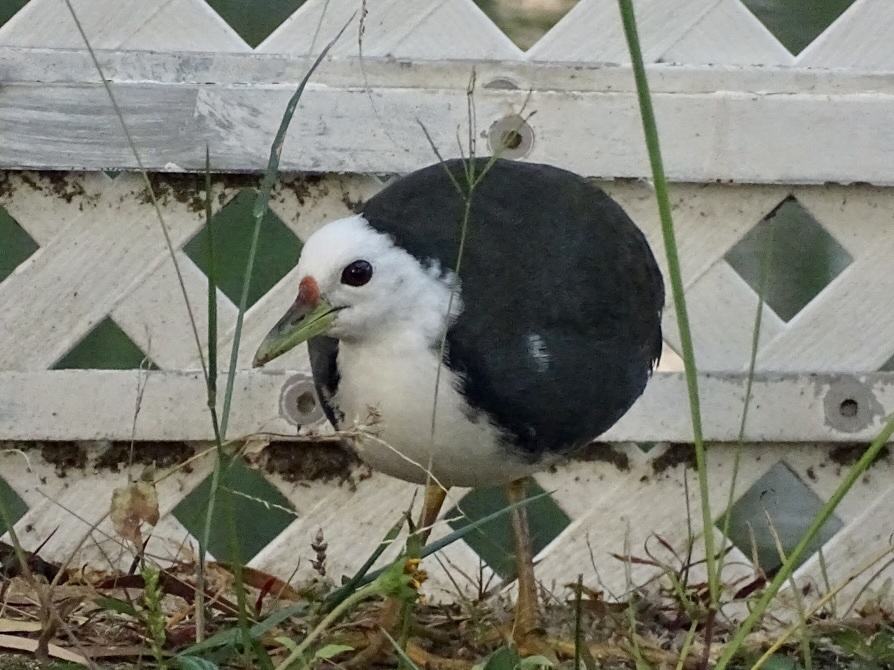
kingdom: Animalia
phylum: Chordata
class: Aves
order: Gruiformes
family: Rallidae
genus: Amaurornis
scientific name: Amaurornis phoenicurus
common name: White-breasted waterhen
